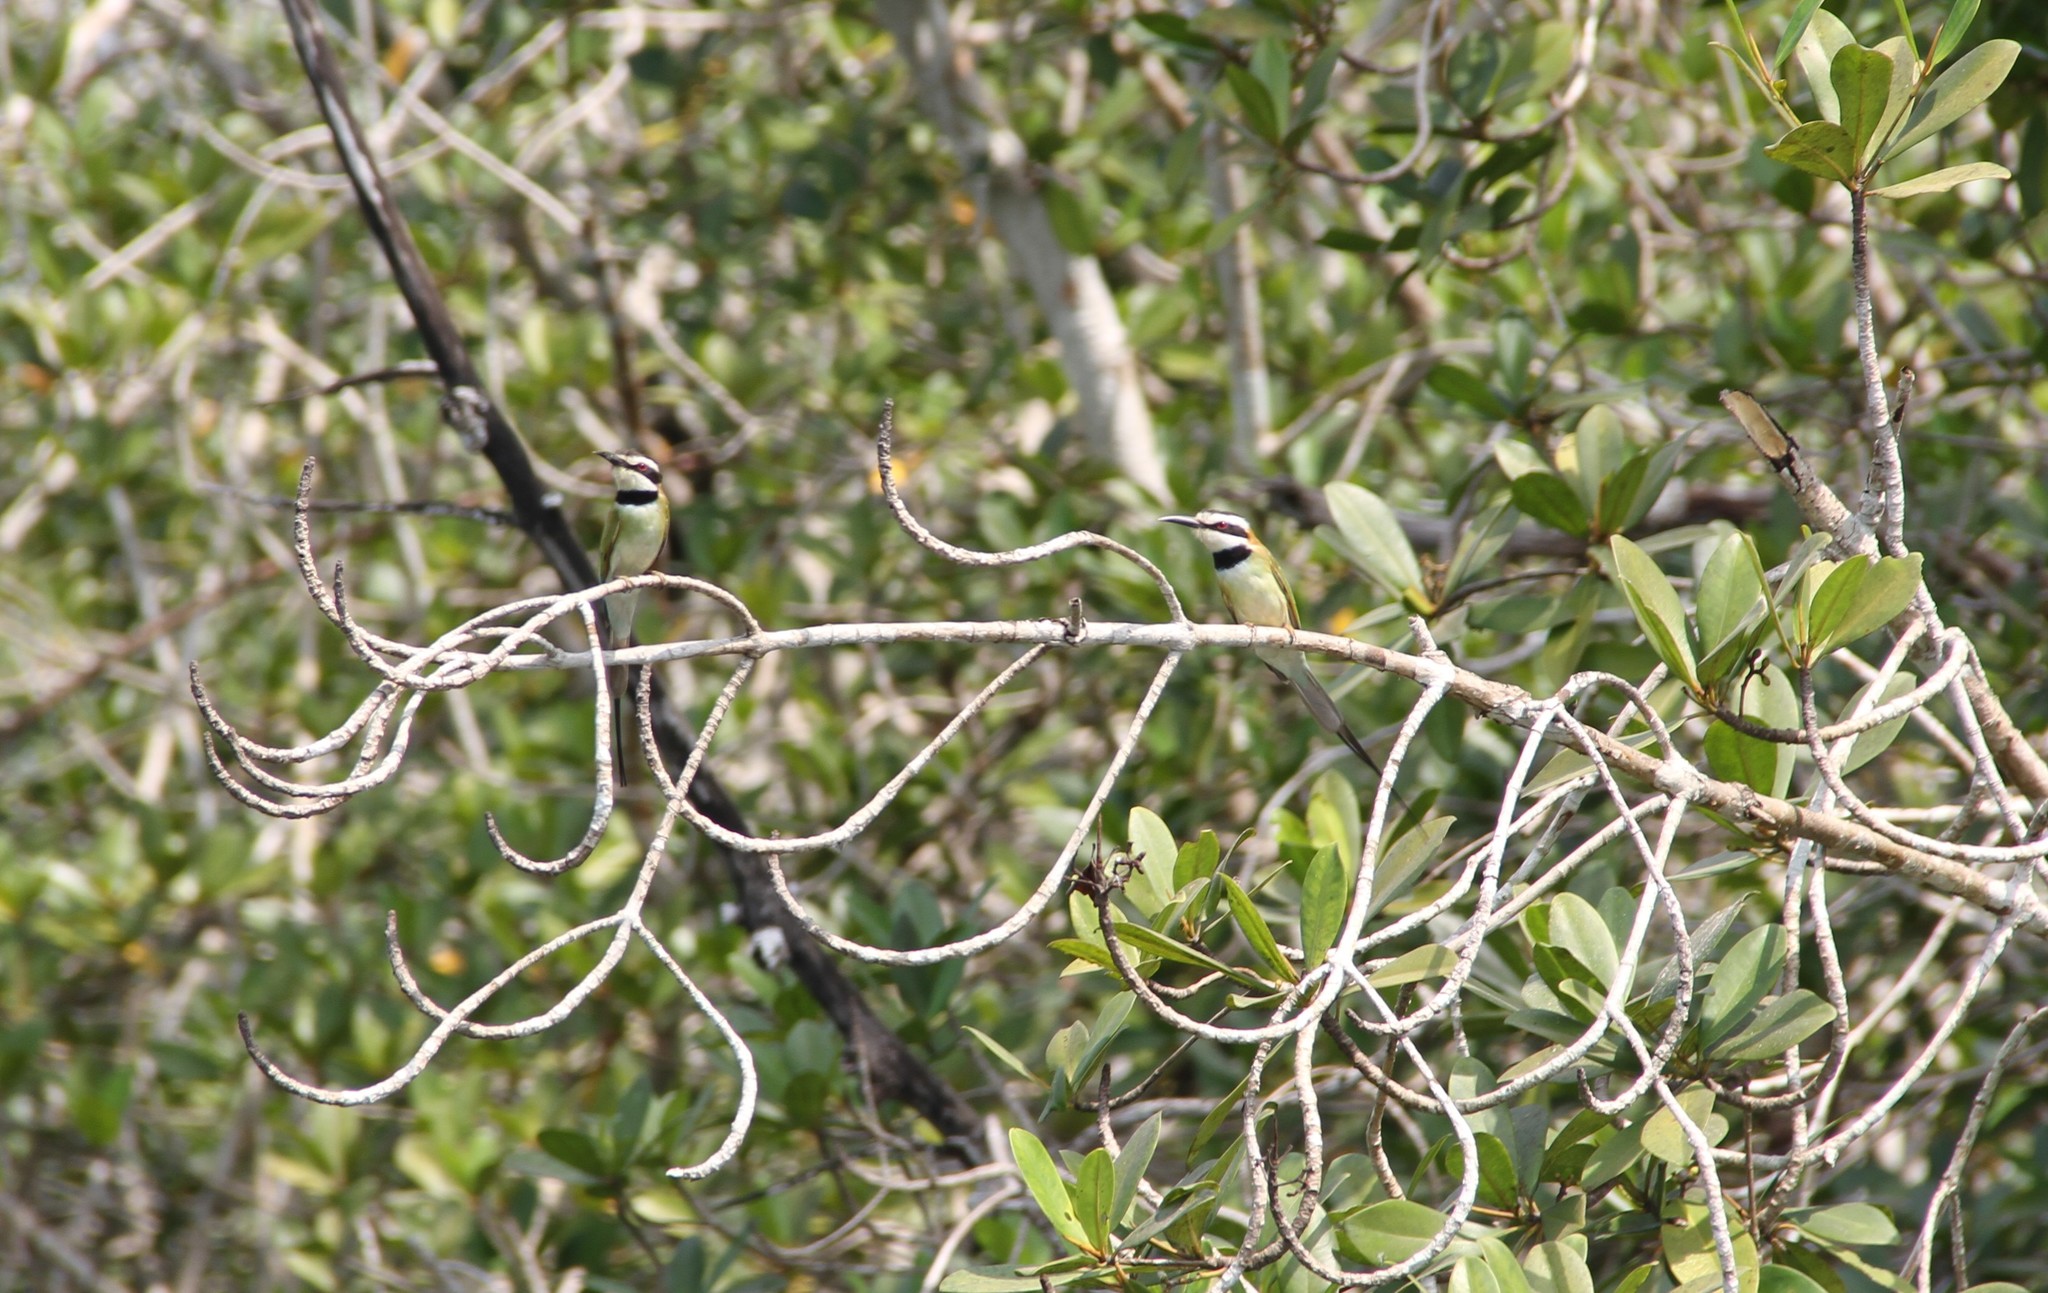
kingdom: Animalia
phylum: Chordata
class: Aves
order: Coraciiformes
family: Meropidae
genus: Merops
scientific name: Merops albicollis
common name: White-throated bee-eater
